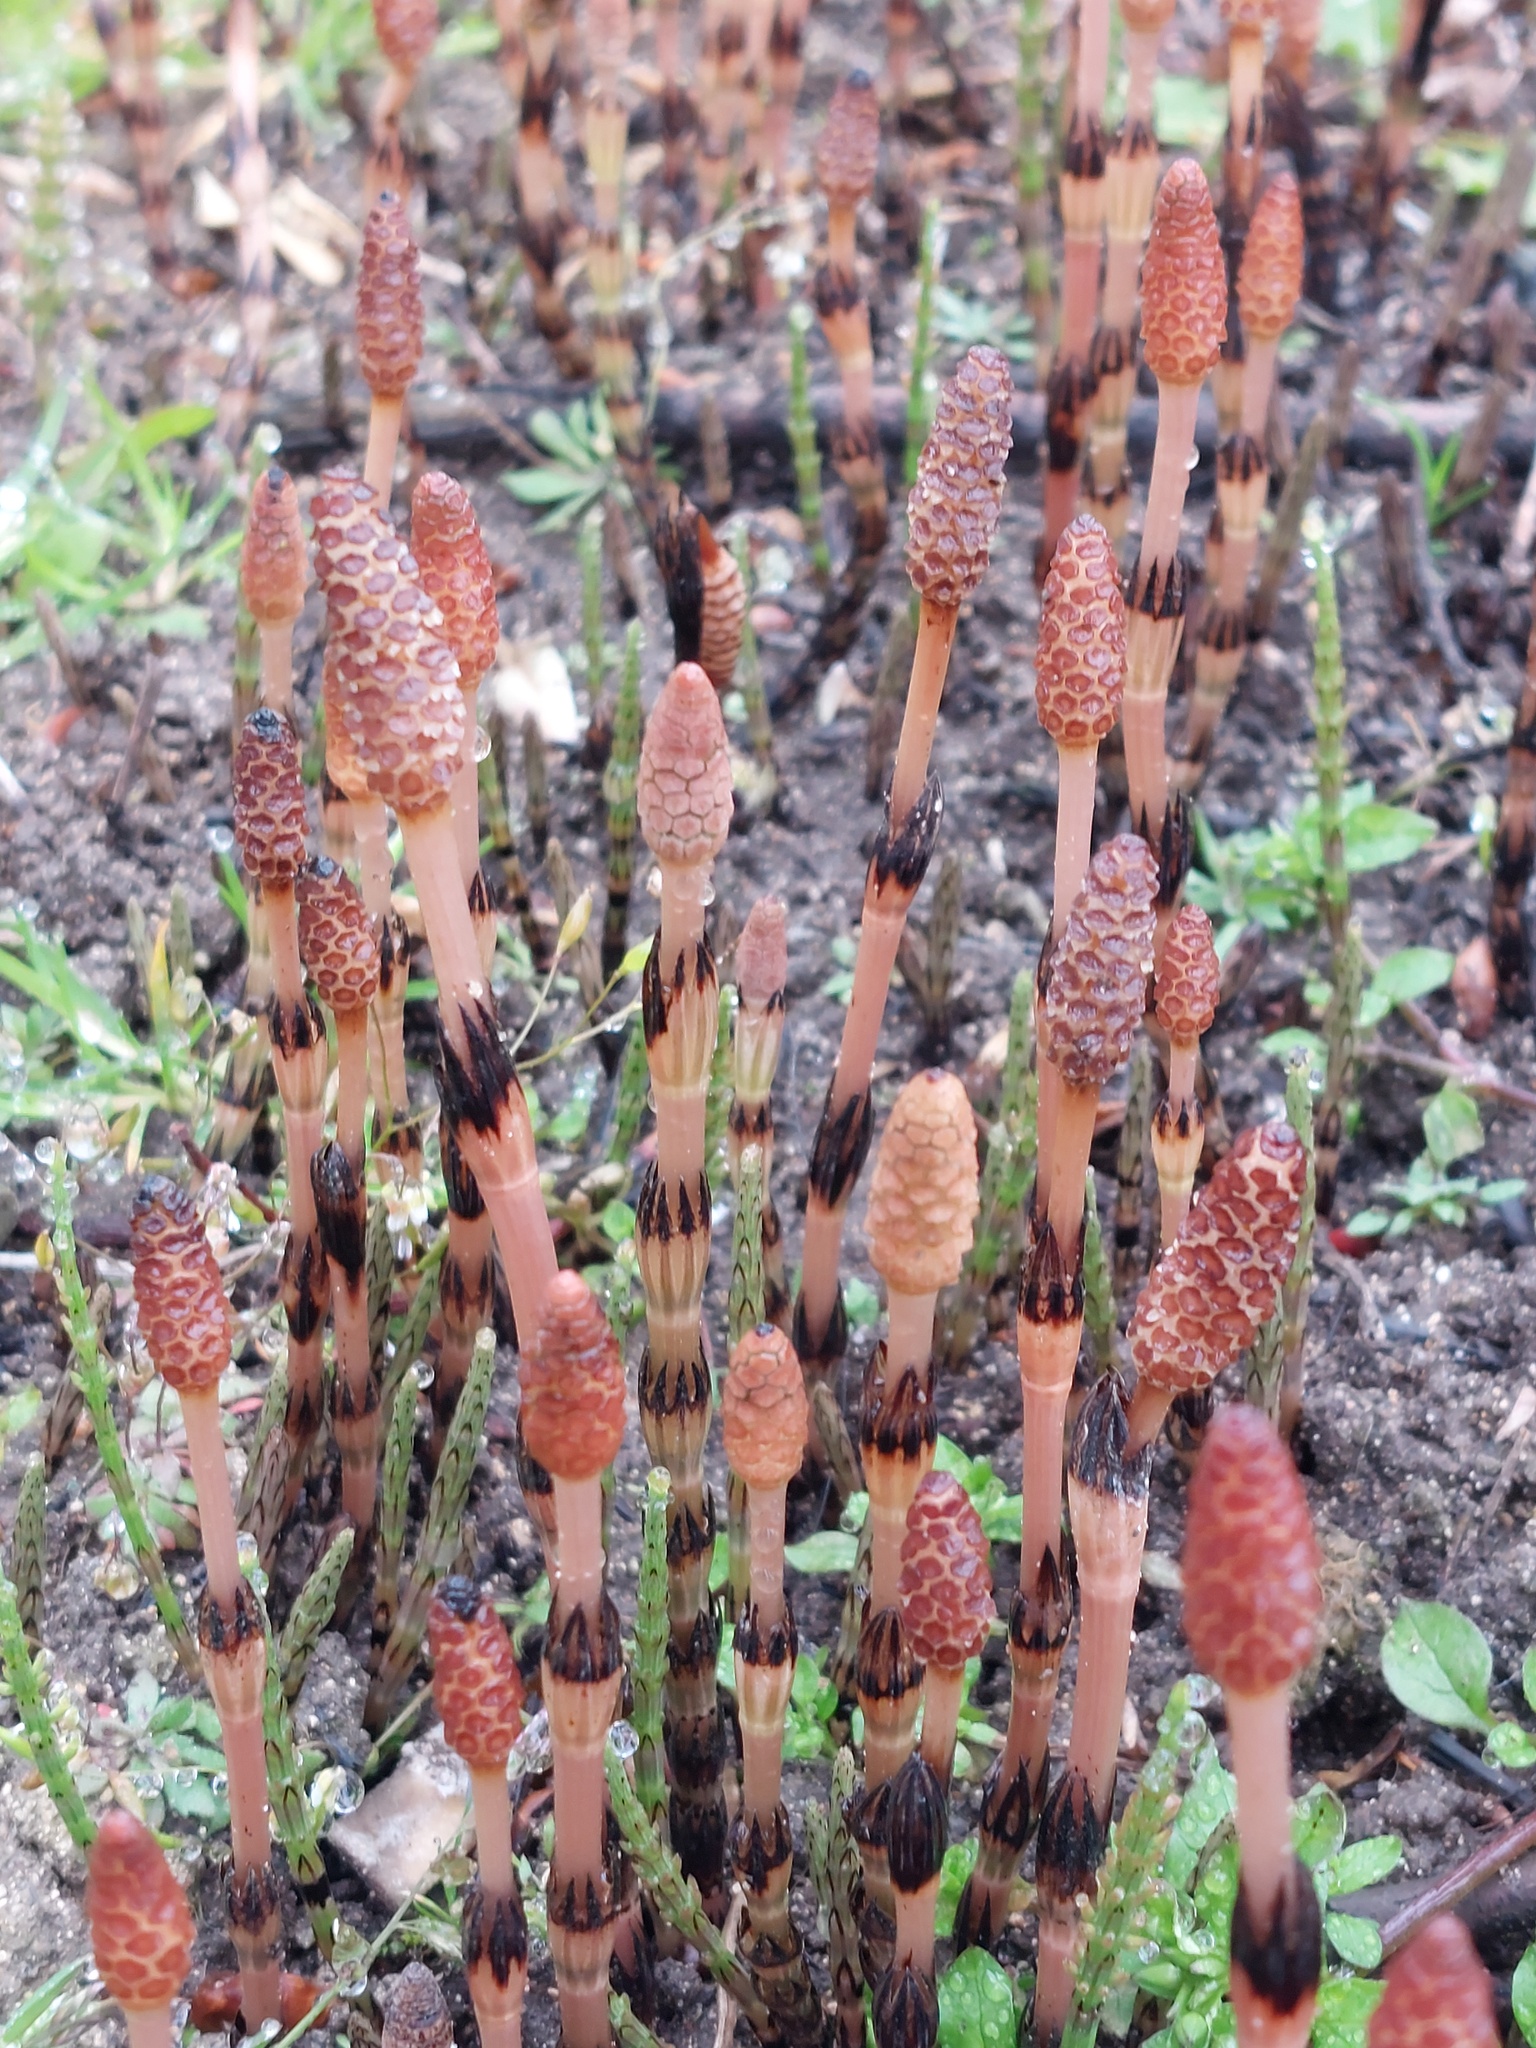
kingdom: Plantae
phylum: Tracheophyta
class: Polypodiopsida
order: Equisetales
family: Equisetaceae
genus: Equisetum
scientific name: Equisetum arvense
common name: Field horsetail
